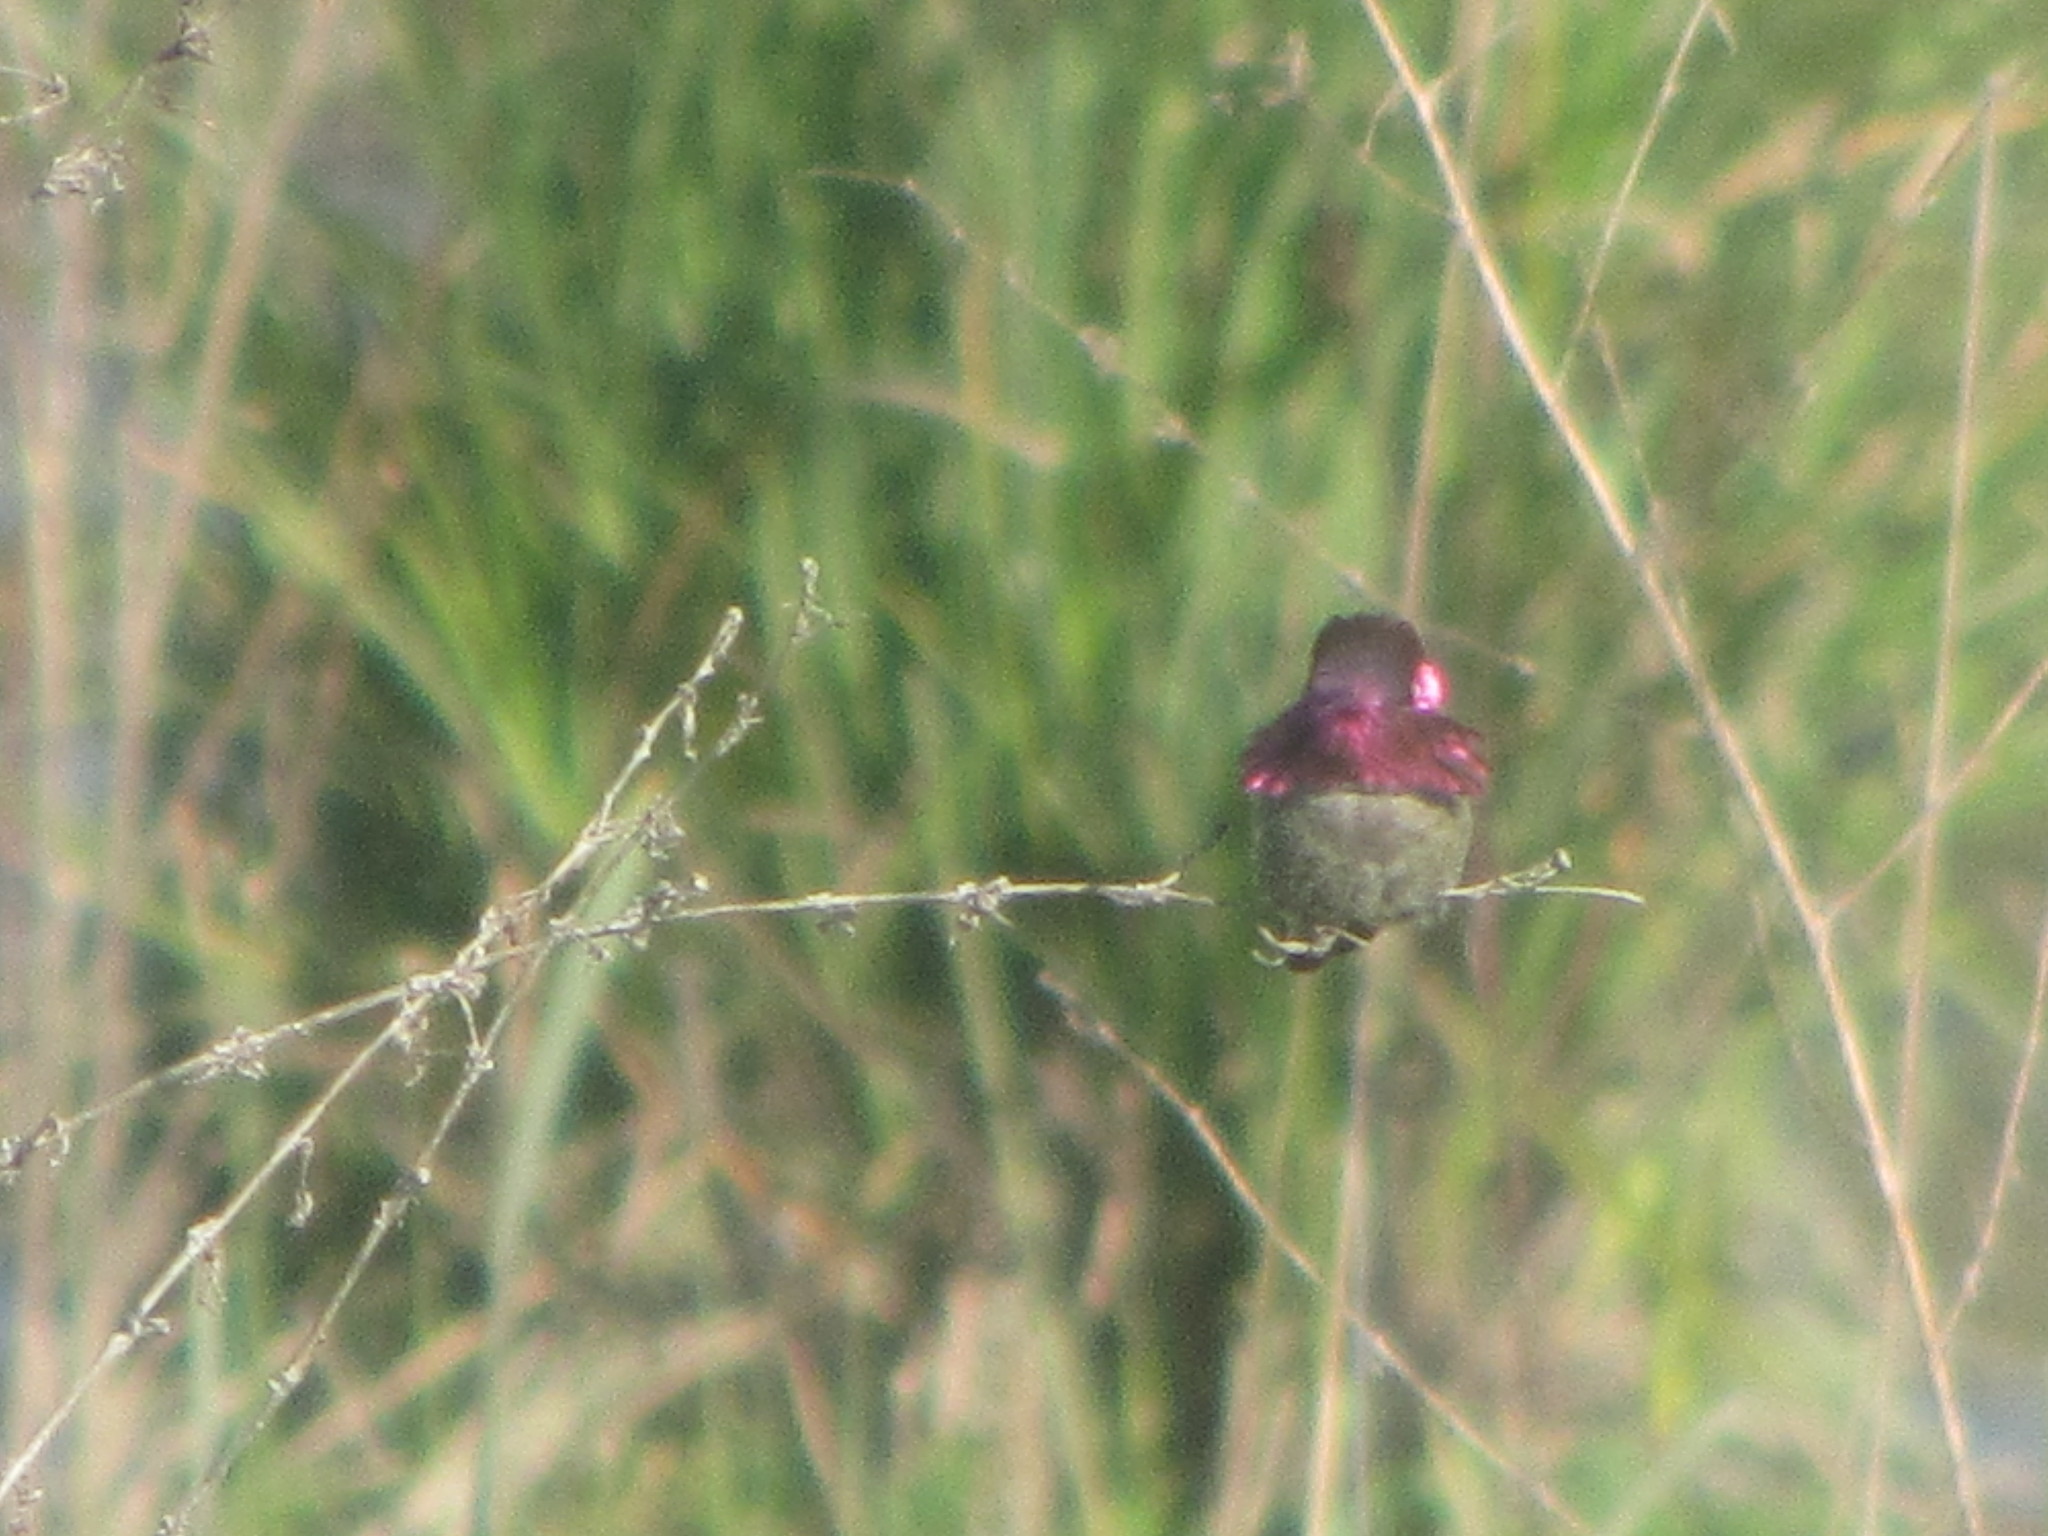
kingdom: Animalia
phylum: Chordata
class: Aves
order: Apodiformes
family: Trochilidae
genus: Calypte
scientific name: Calypte anna
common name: Anna's hummingbird
